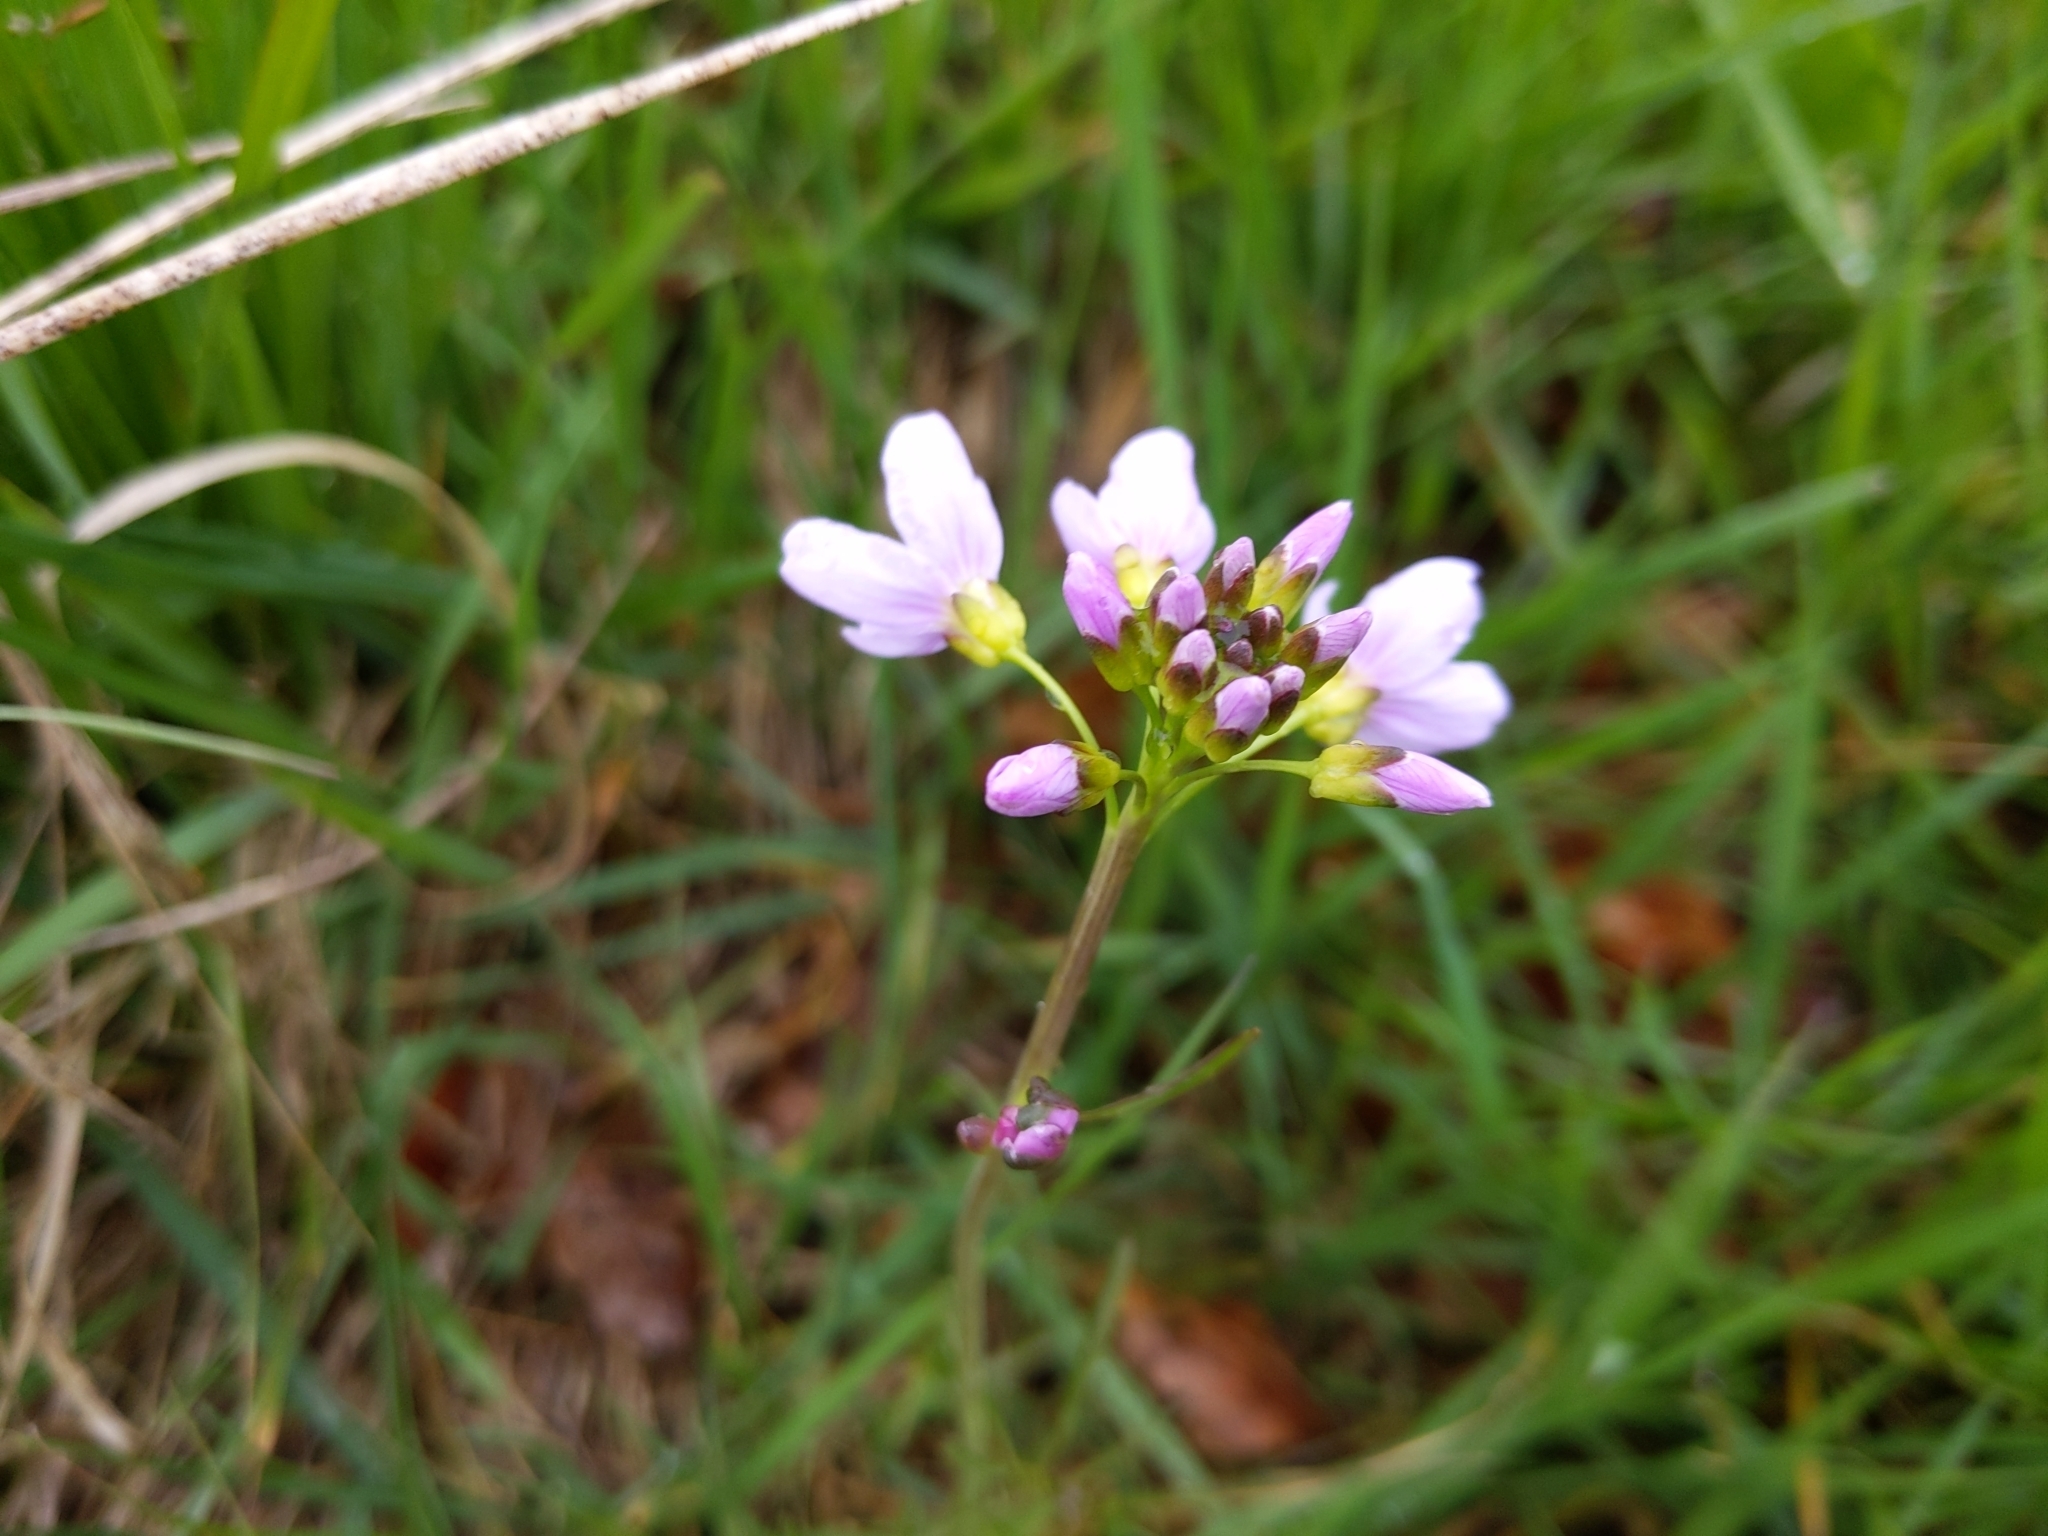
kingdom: Plantae
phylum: Tracheophyta
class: Magnoliopsida
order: Brassicales
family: Brassicaceae
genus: Cardamine
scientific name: Cardamine pratensis
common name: Cuckoo flower
